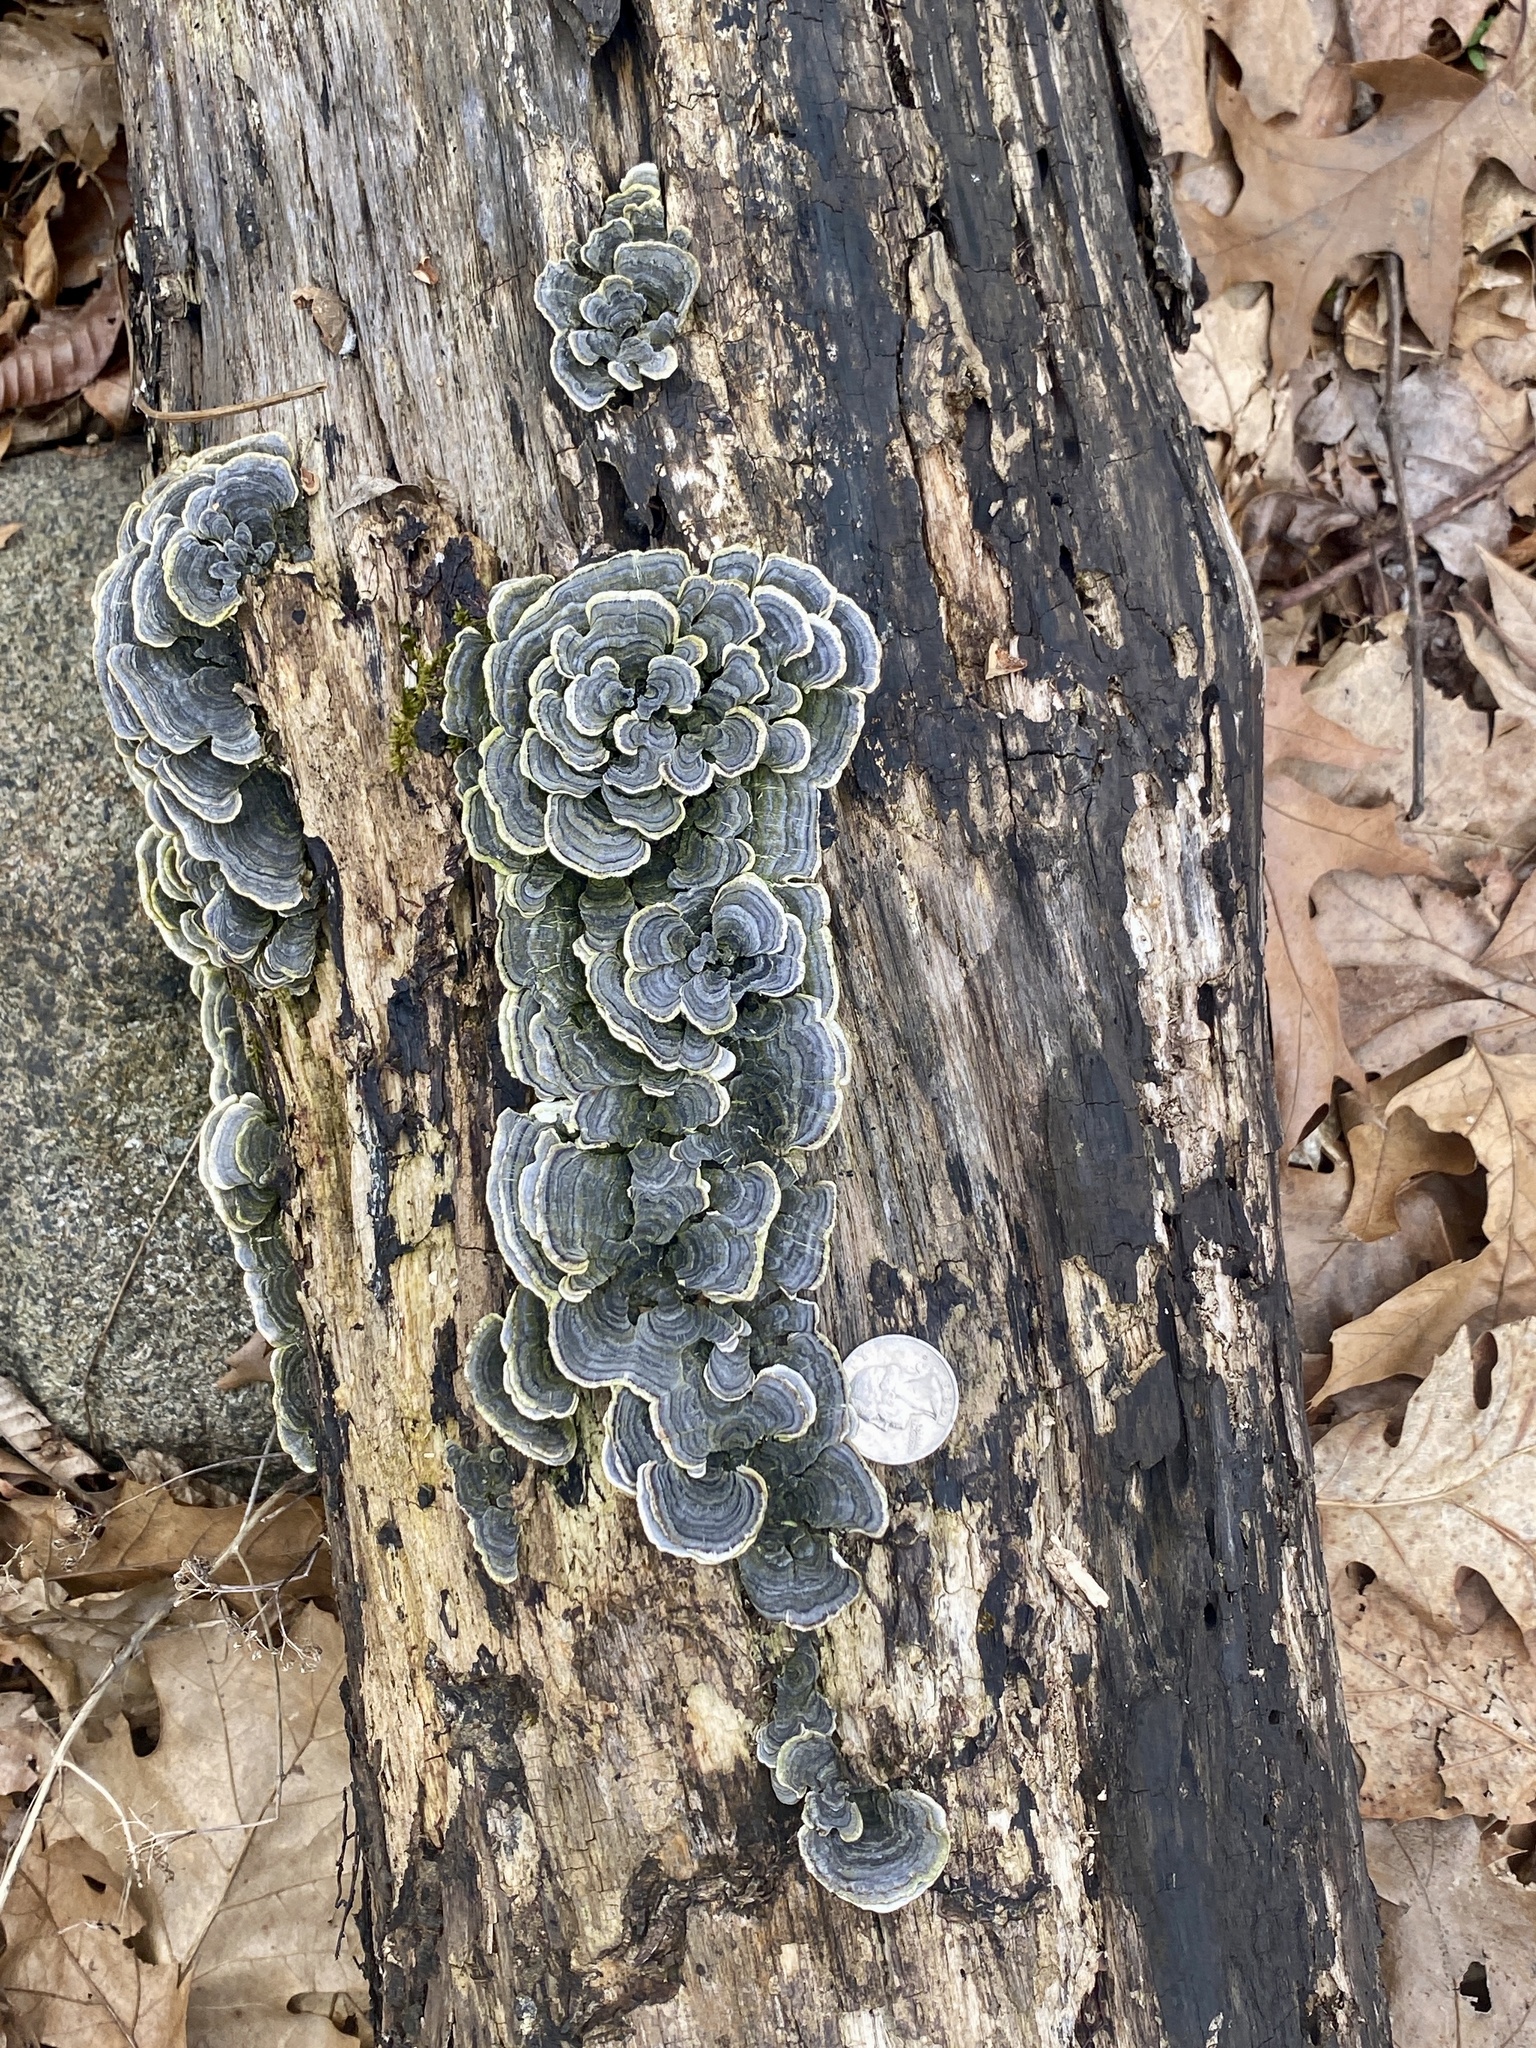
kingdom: Fungi
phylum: Basidiomycota
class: Agaricomycetes
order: Polyporales
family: Polyporaceae
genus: Trametes
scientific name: Trametes versicolor
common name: Turkeytail
